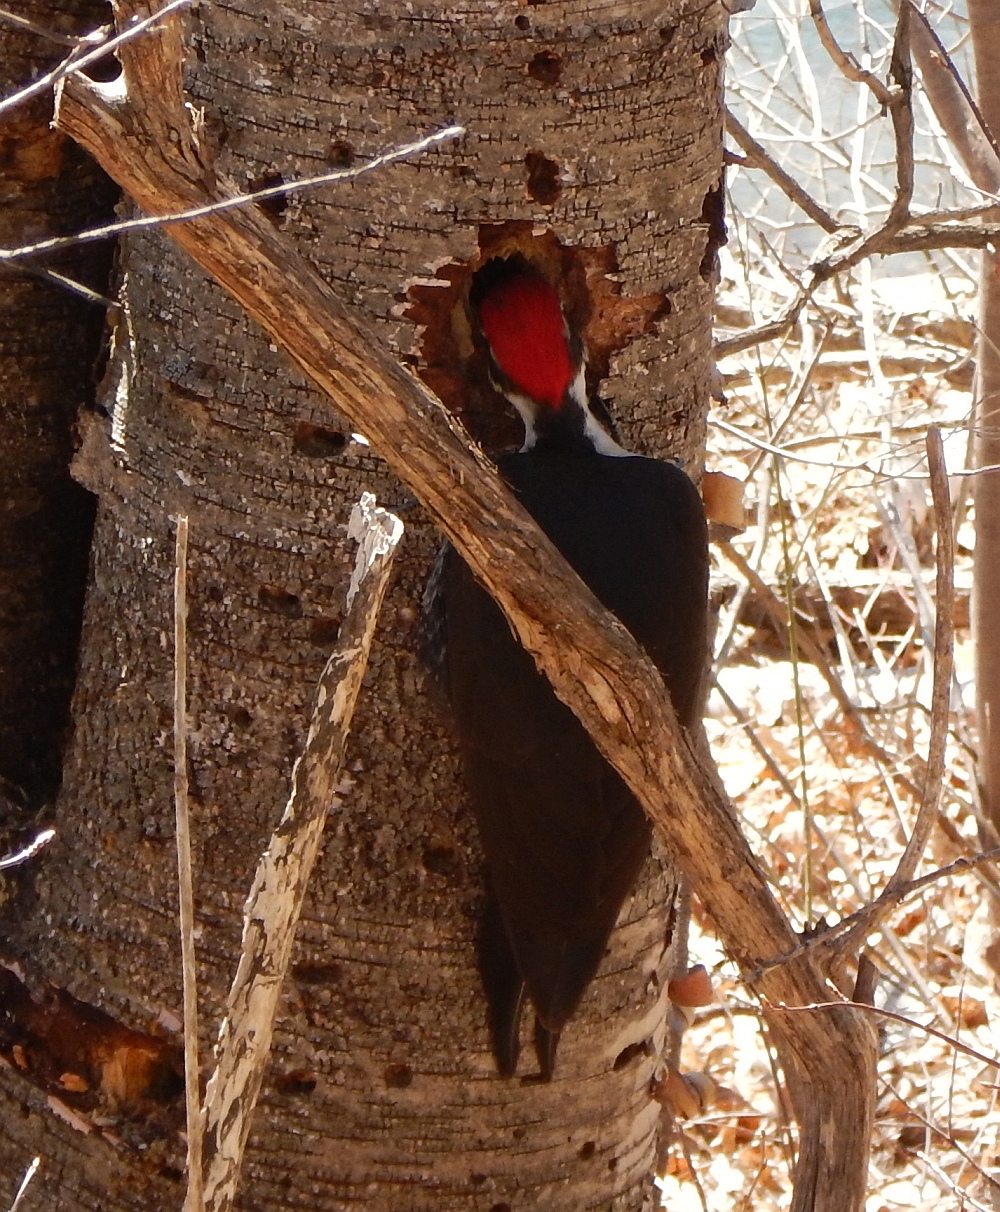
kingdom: Animalia
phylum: Chordata
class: Aves
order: Piciformes
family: Picidae
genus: Dryocopus
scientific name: Dryocopus pileatus
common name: Pileated woodpecker
